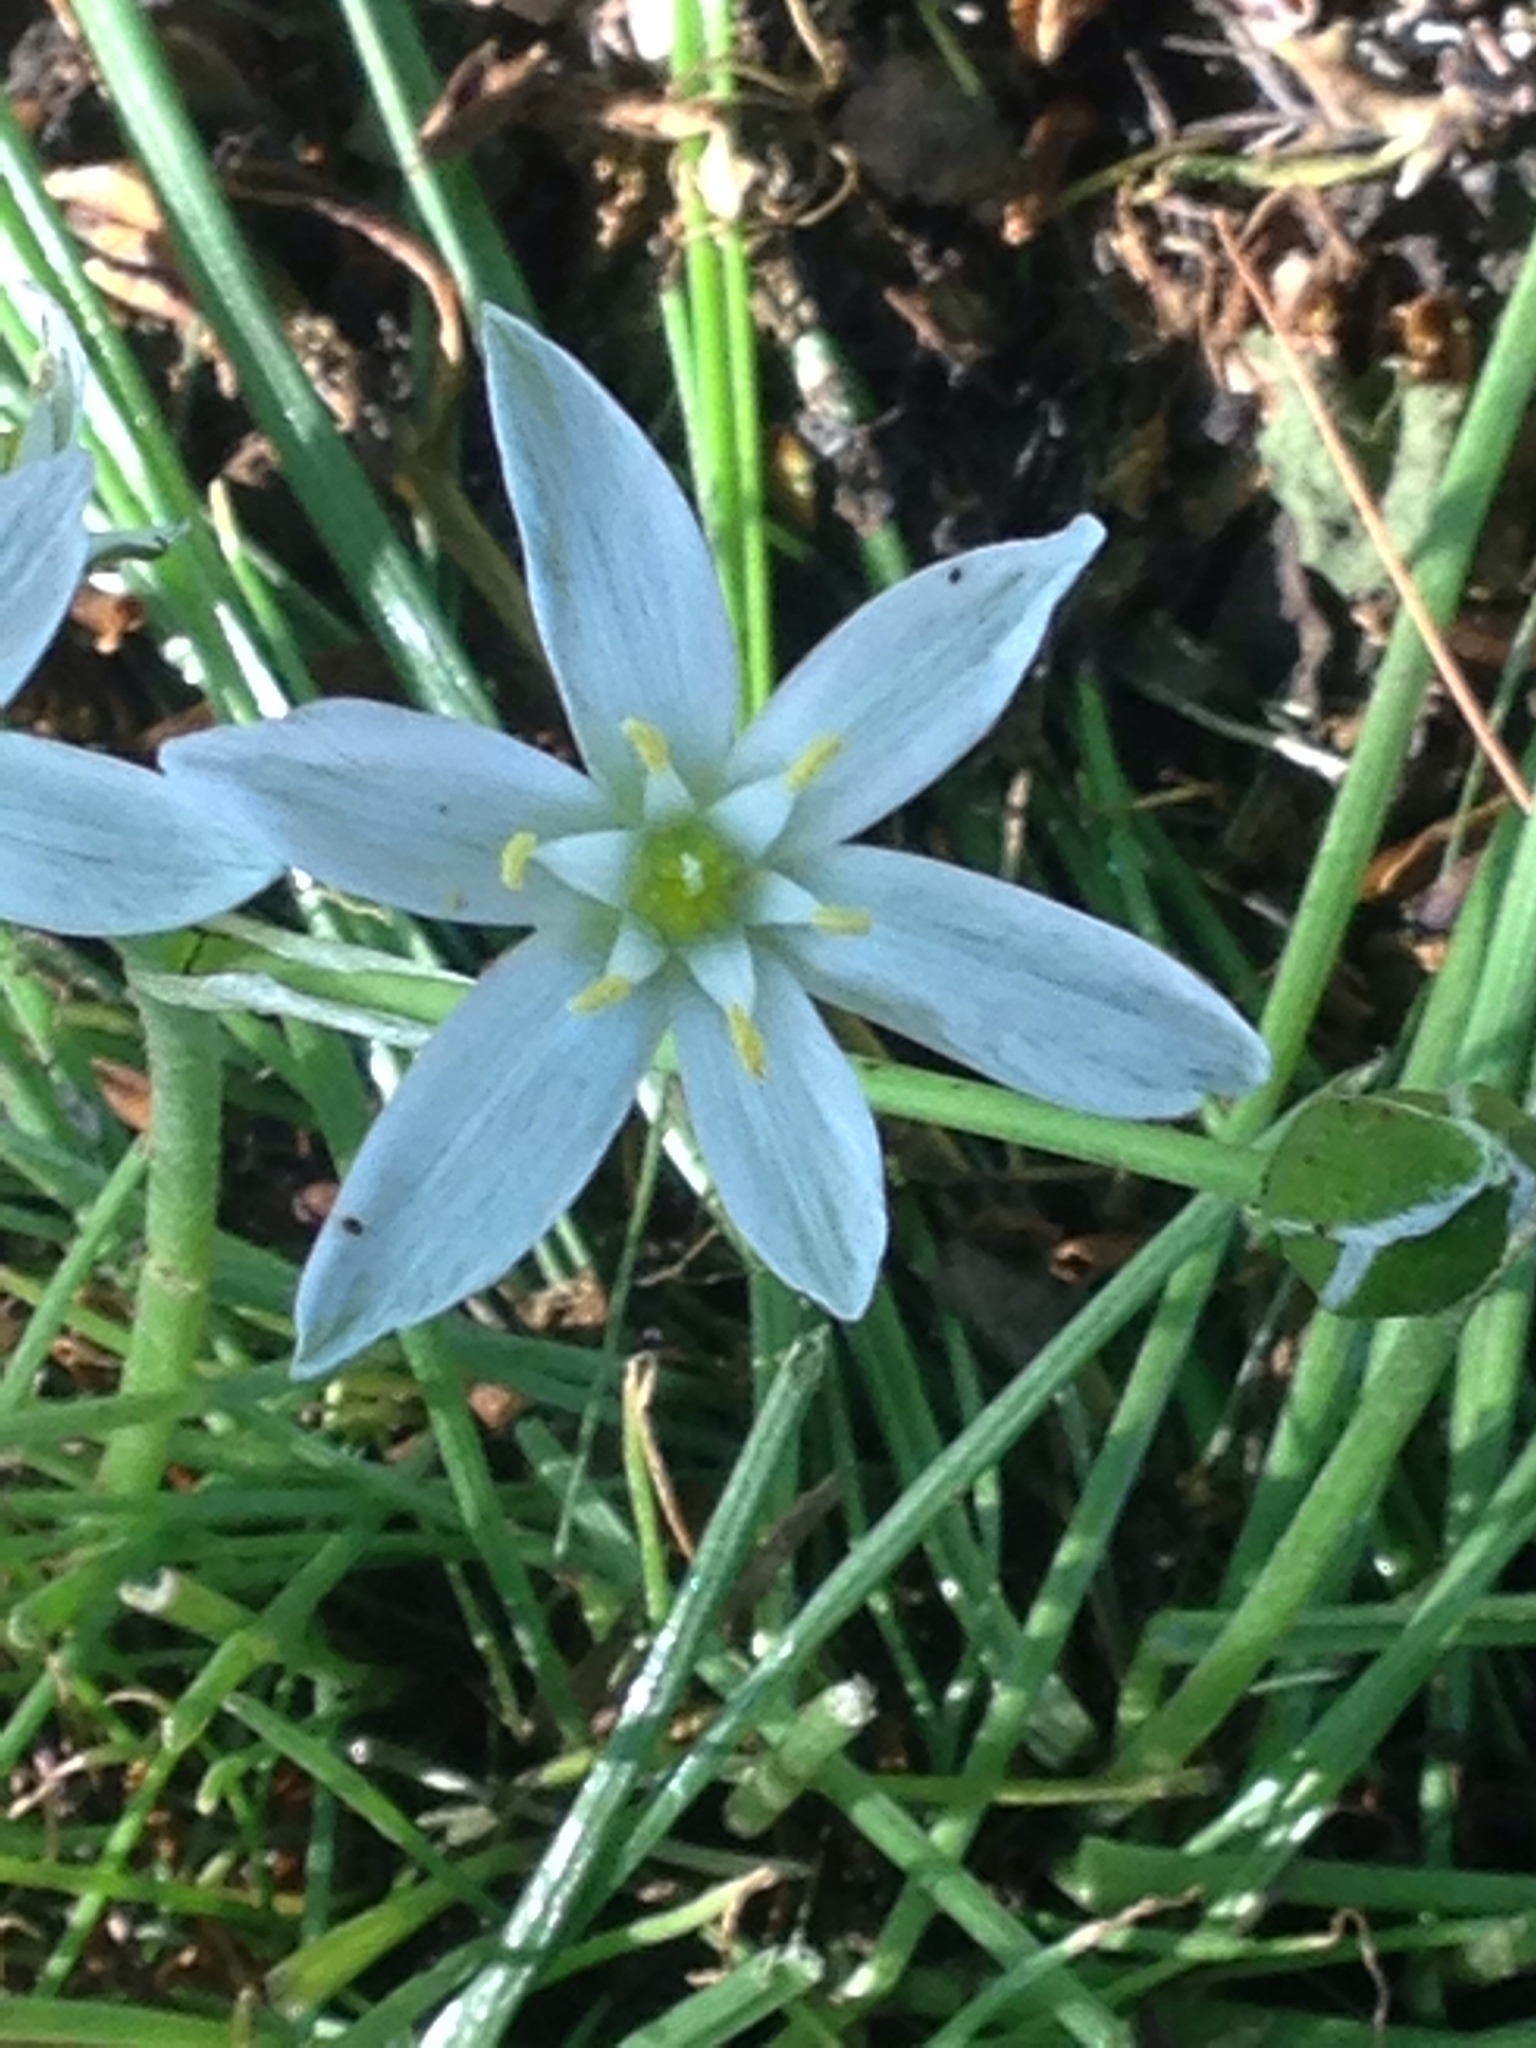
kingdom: Plantae
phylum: Tracheophyta
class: Liliopsida
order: Asparagales
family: Asparagaceae
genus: Ornithogalum
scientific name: Ornithogalum umbellatum
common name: Garden star-of-bethlehem
